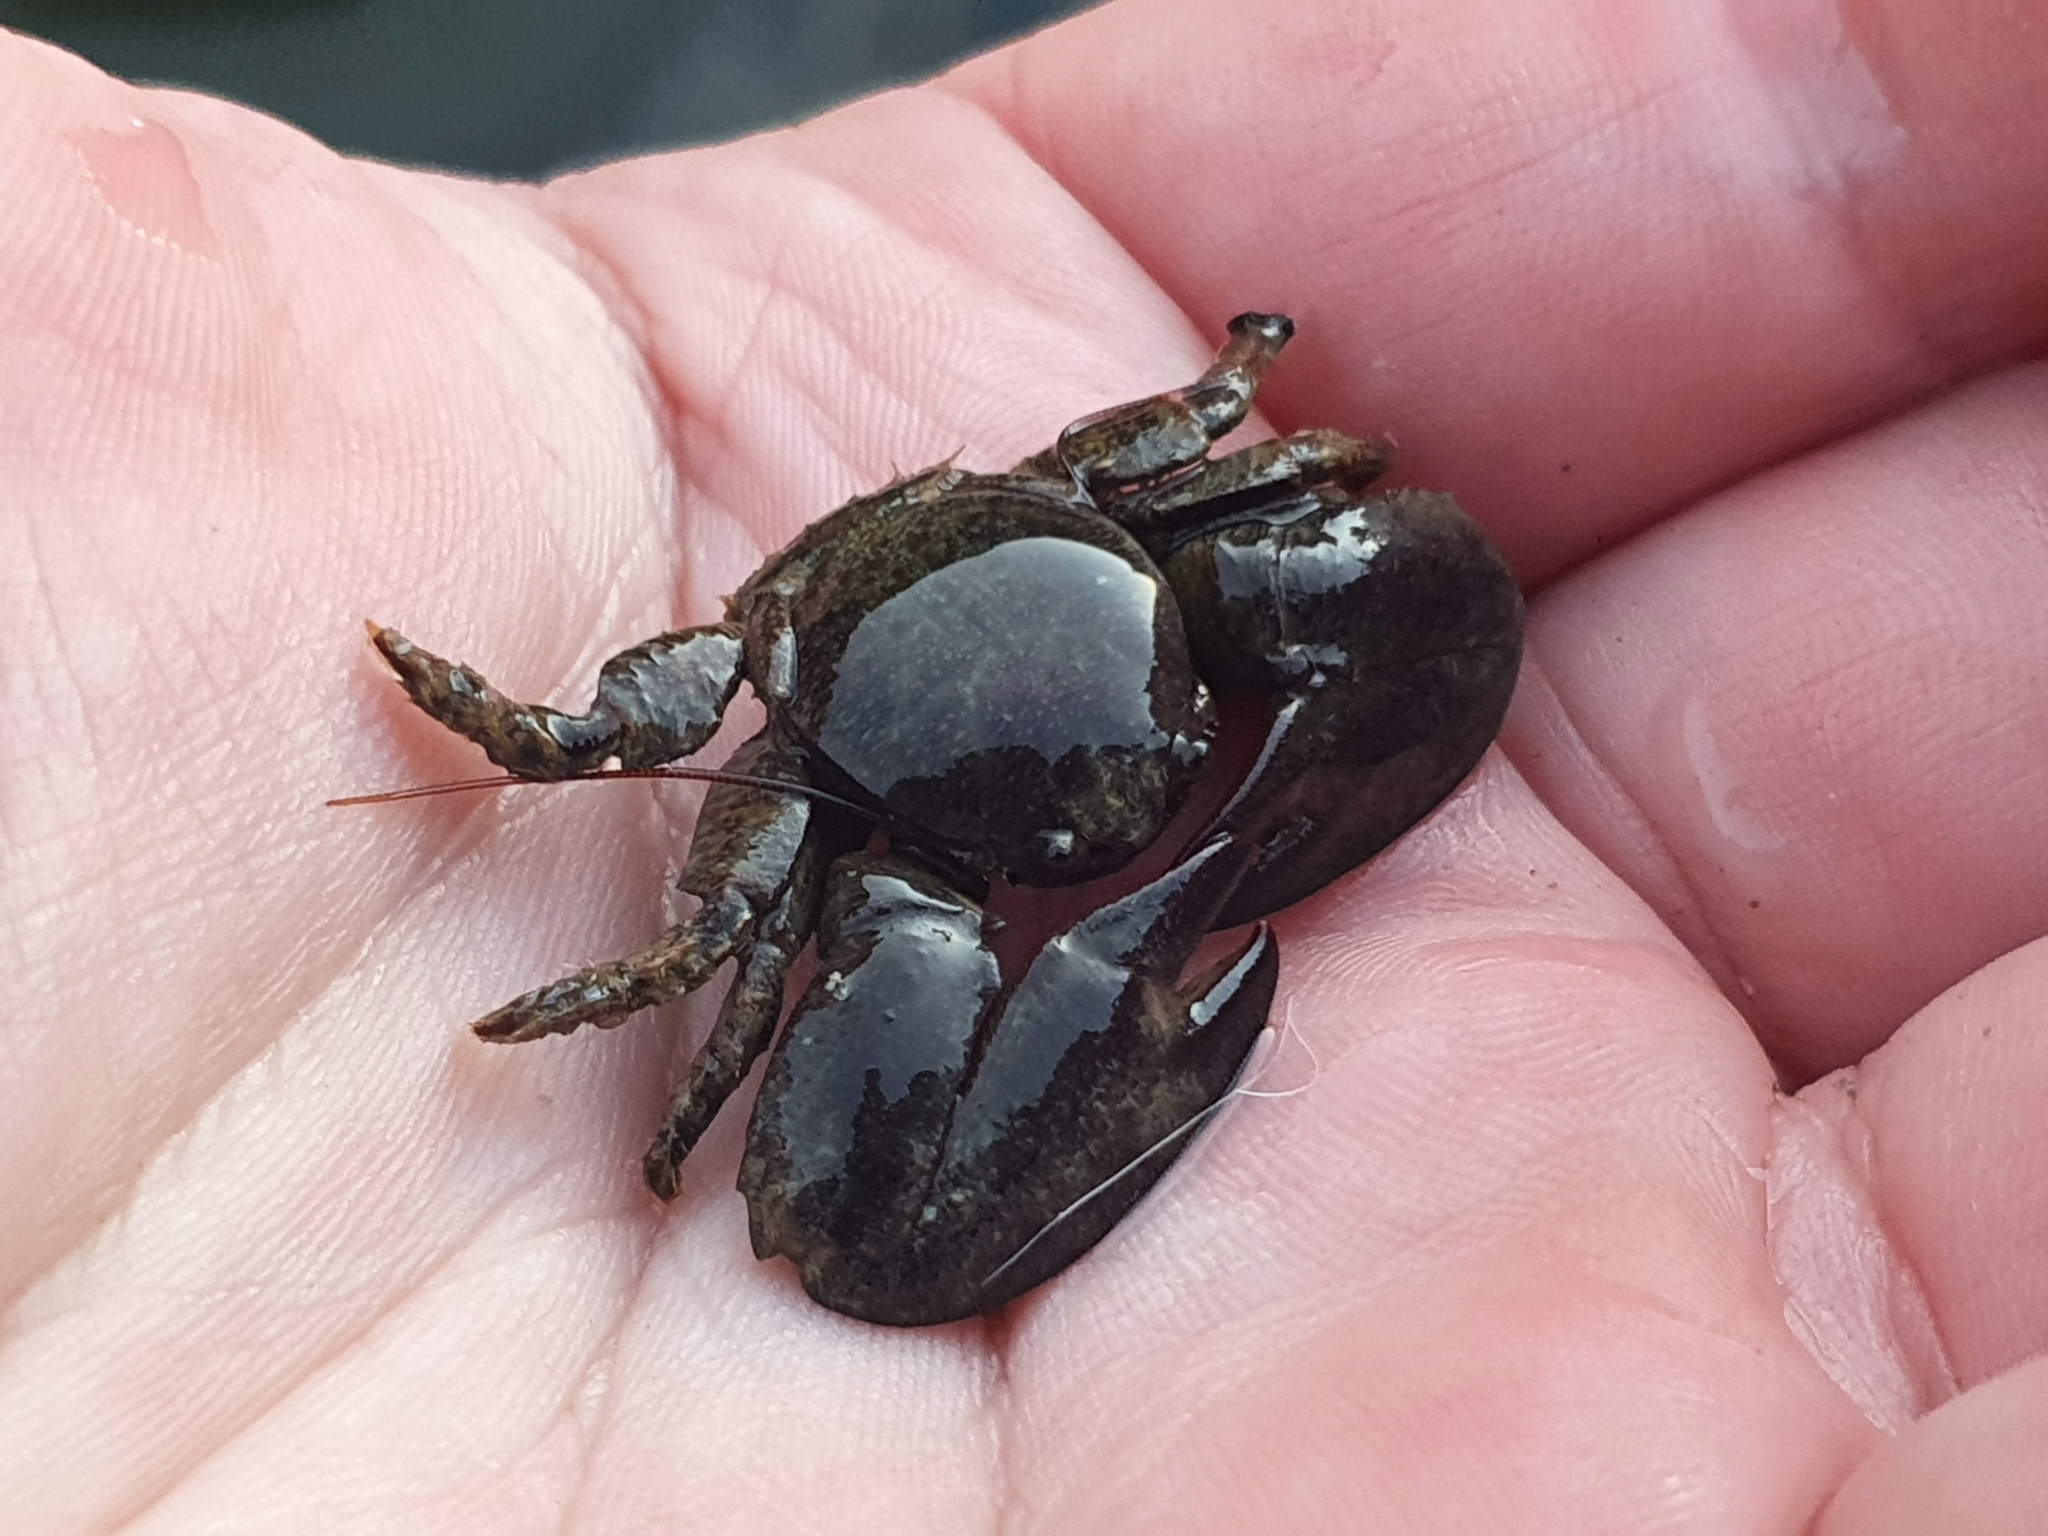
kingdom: Animalia
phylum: Arthropoda
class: Malacostraca
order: Decapoda
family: Porcellanidae
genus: Petrolisthes
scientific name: Petrolisthes elongatus
